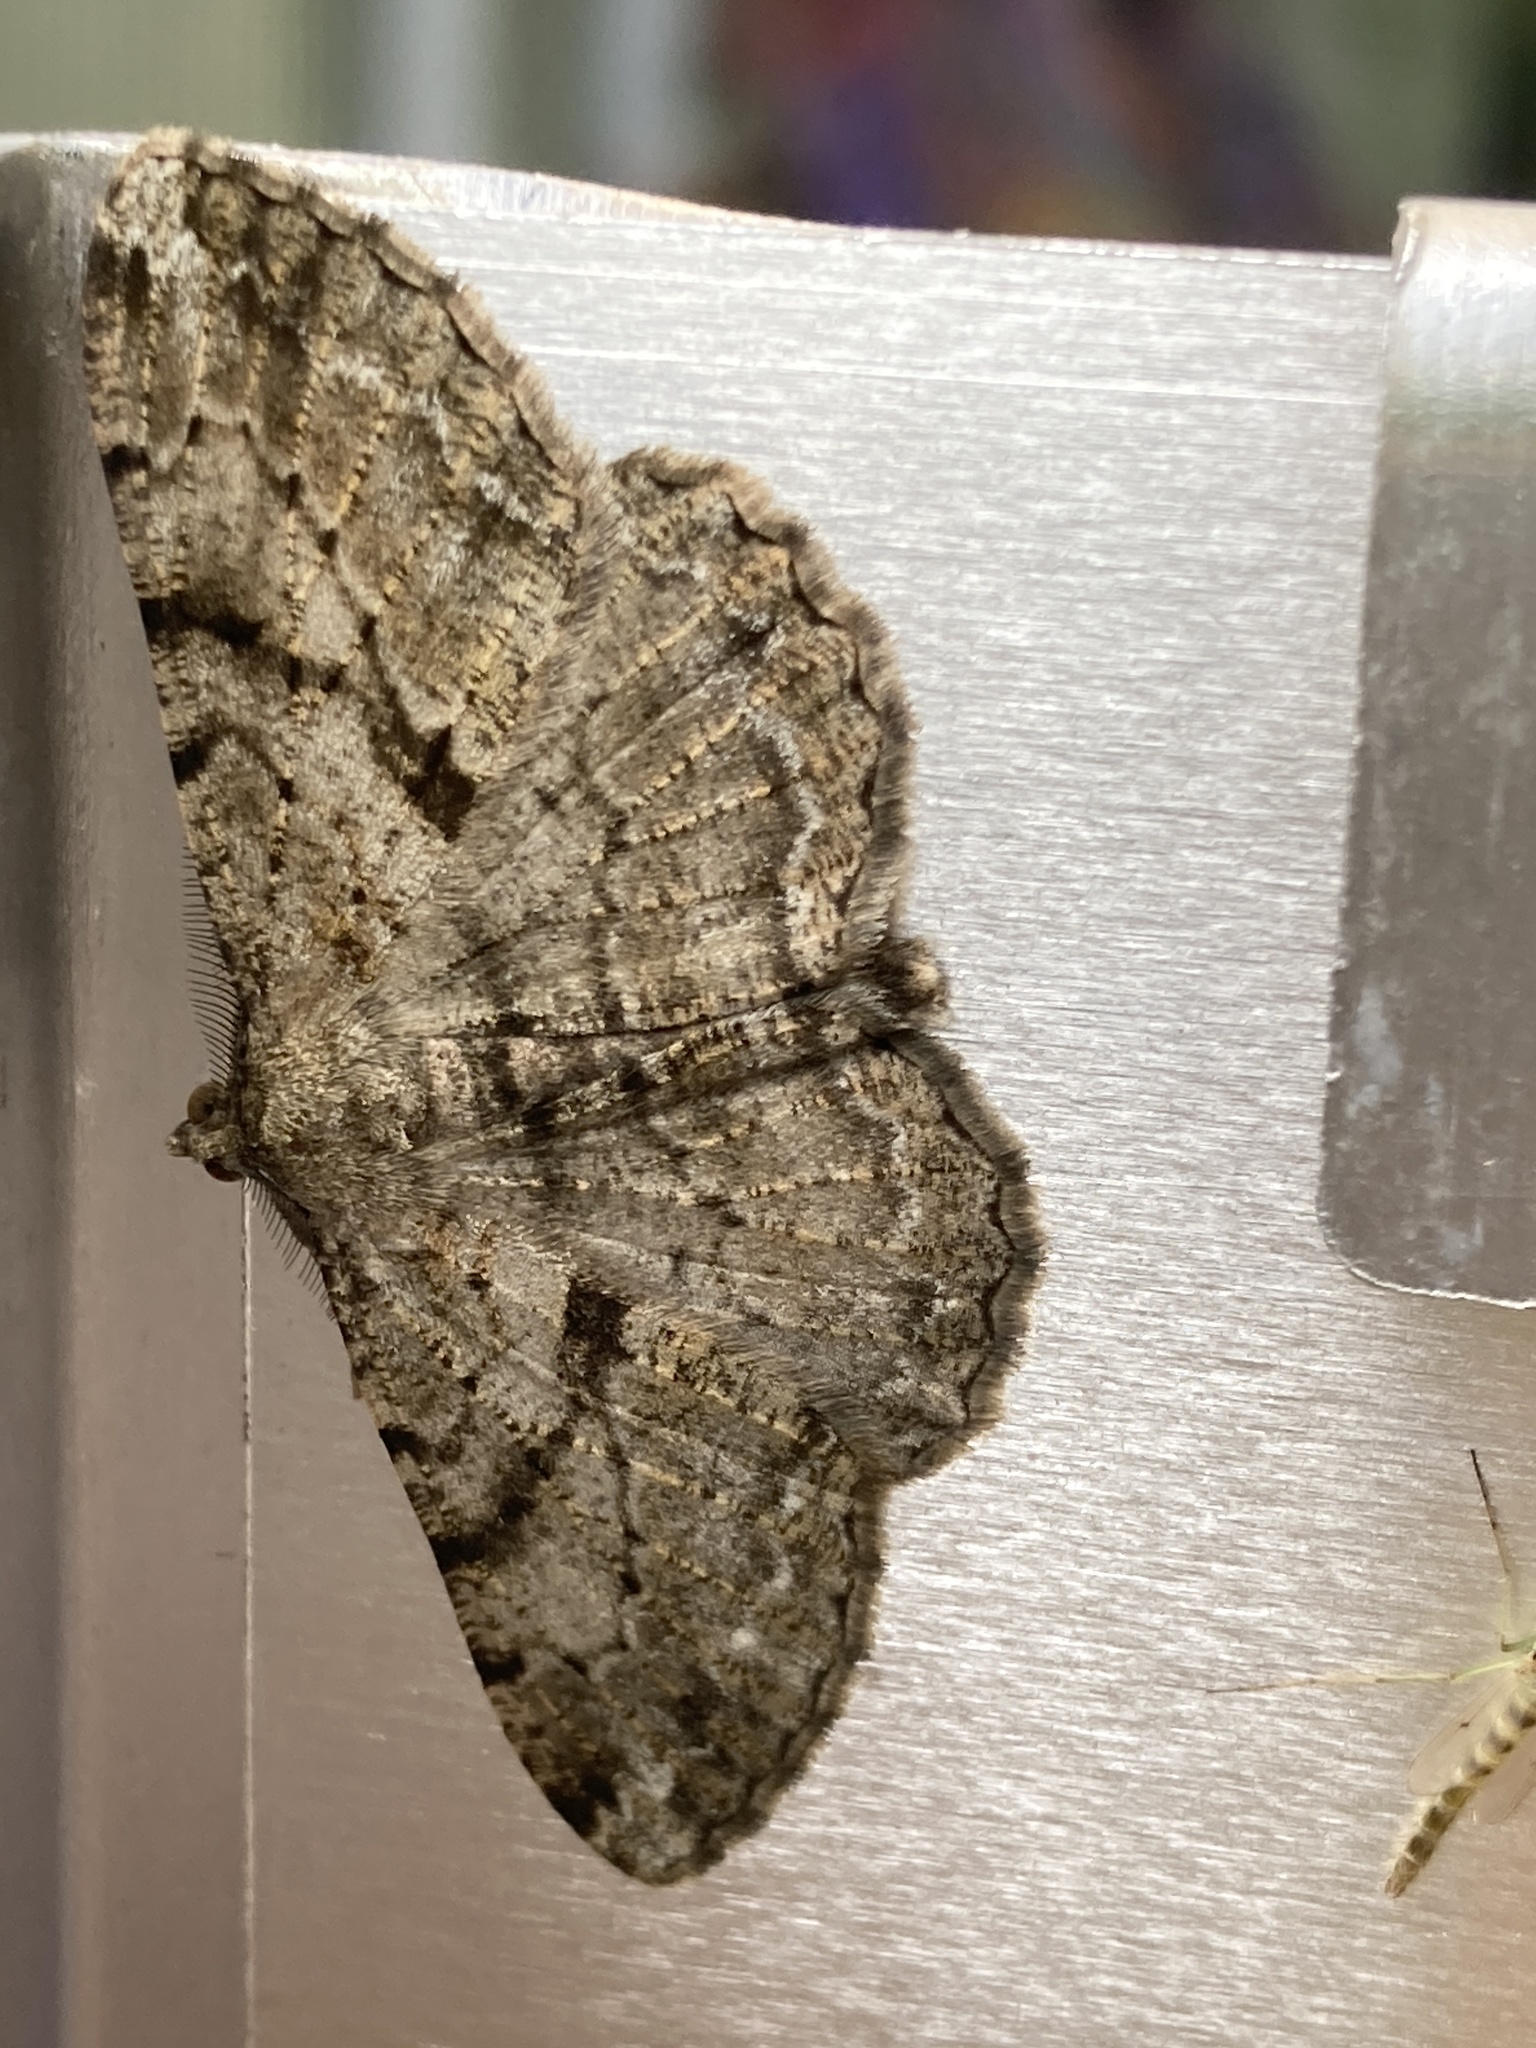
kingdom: Animalia
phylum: Arthropoda
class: Insecta
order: Lepidoptera
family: Geometridae
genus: Peribatodes
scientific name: Peribatodes rhomboidaria
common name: Willow beauty
